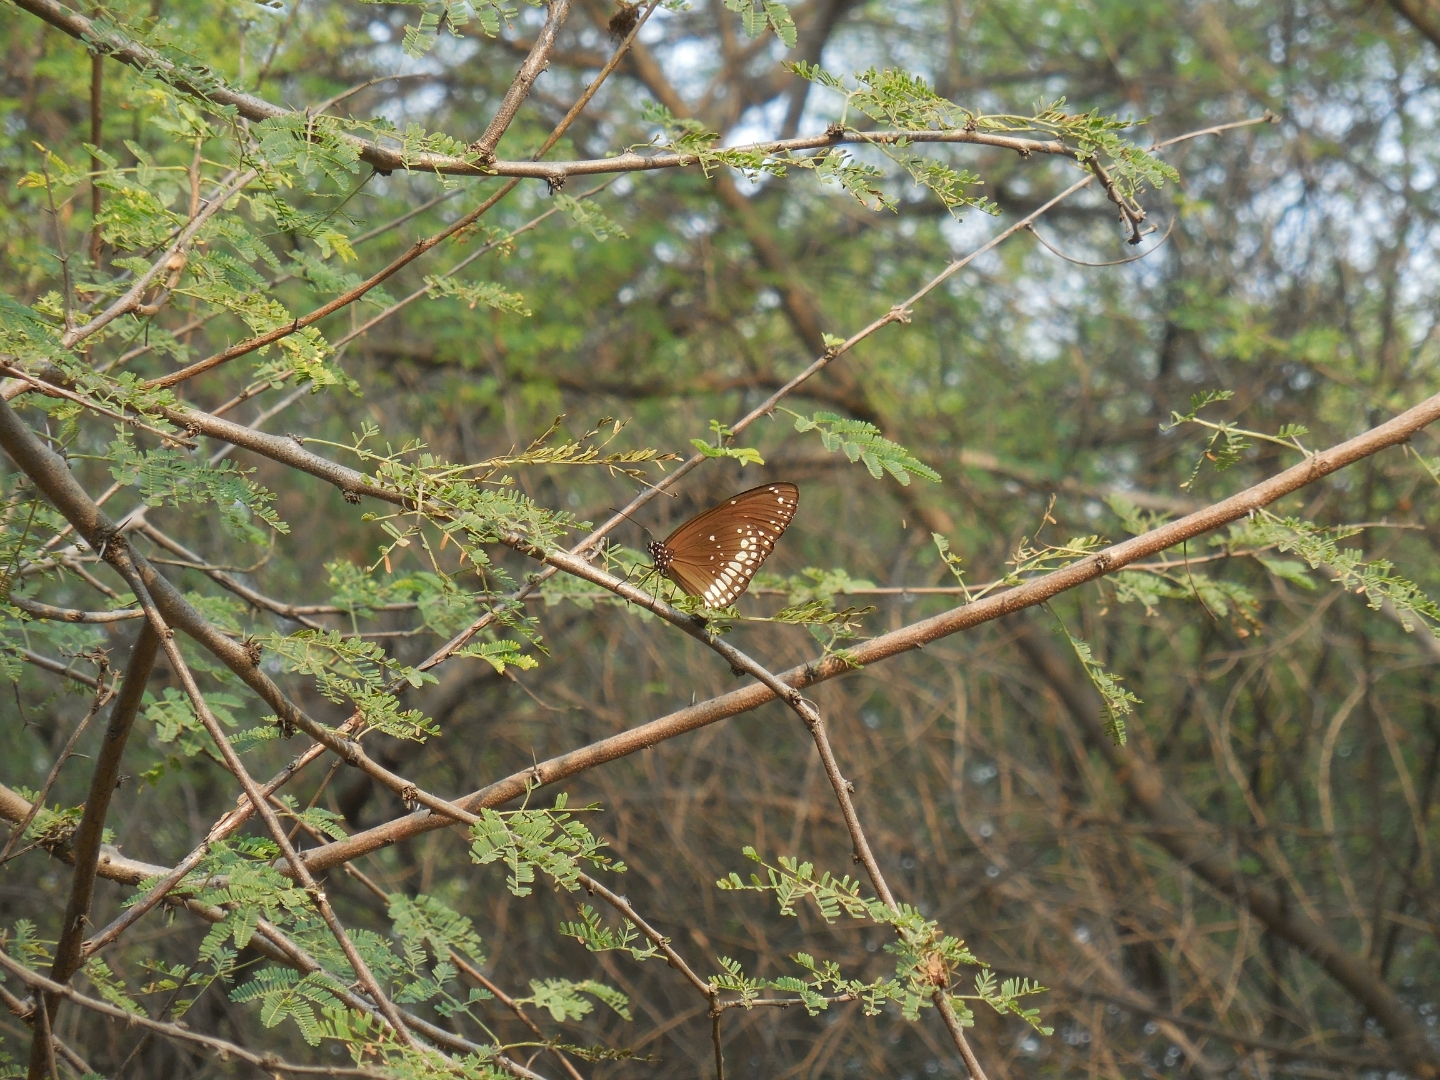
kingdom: Animalia
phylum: Arthropoda
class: Insecta
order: Lepidoptera
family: Nymphalidae
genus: Euploea
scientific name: Euploea core
